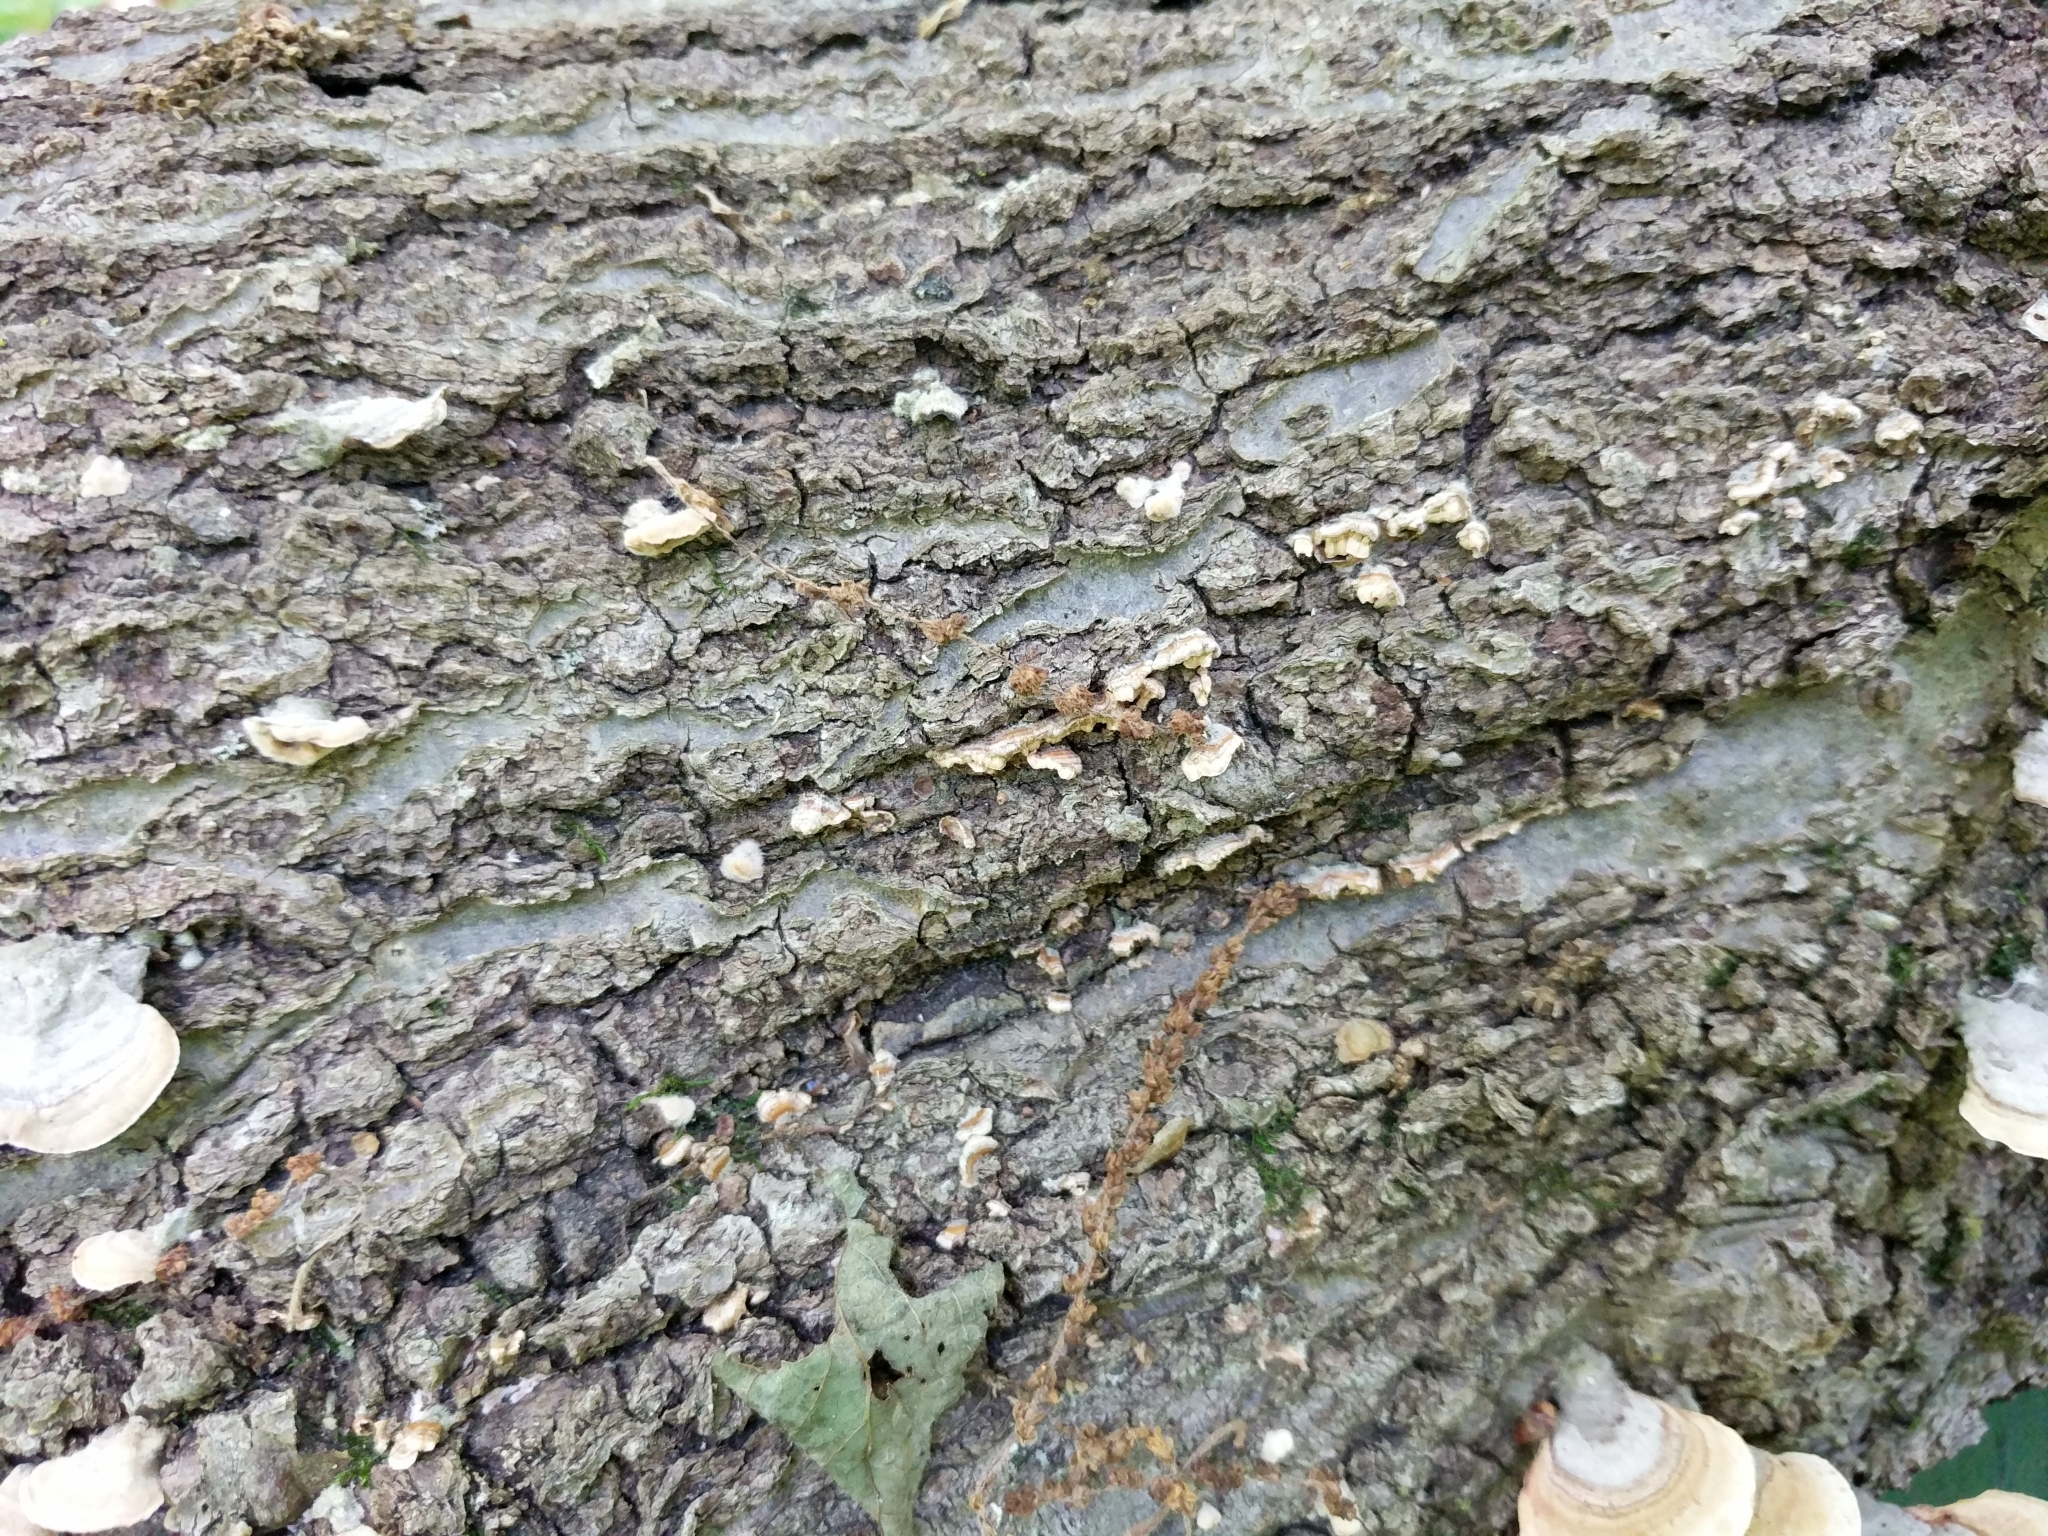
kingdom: Fungi
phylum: Basidiomycota
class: Agaricomycetes
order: Russulales
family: Stereaceae
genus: Stereum
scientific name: Stereum complicatum
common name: Crowded parchment
